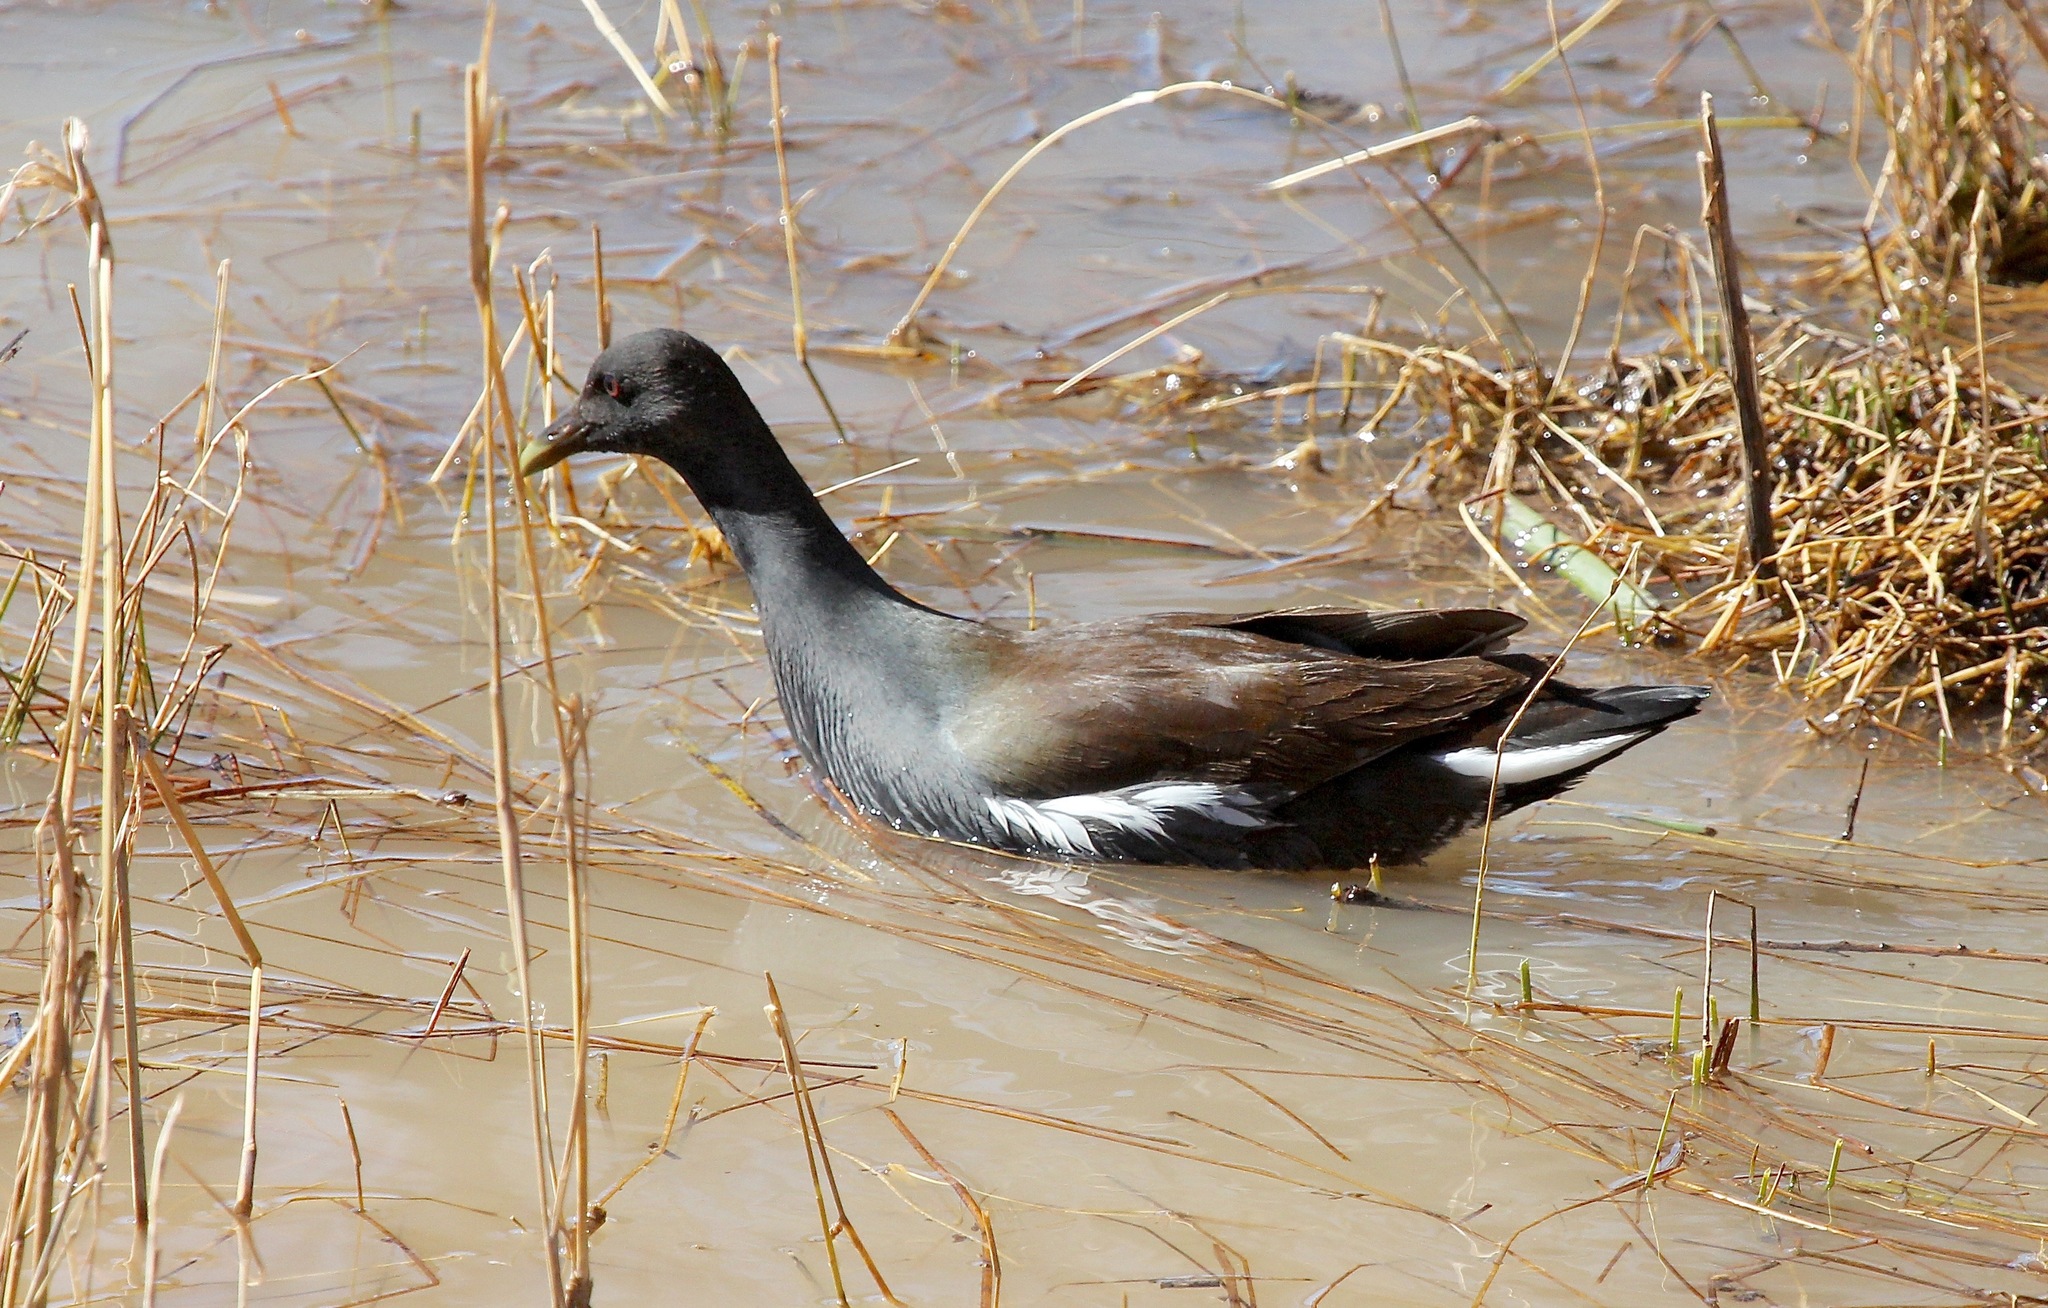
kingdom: Animalia
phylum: Chordata
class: Aves
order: Gruiformes
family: Rallidae
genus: Gallinula
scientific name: Gallinula chloropus
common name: Common moorhen
